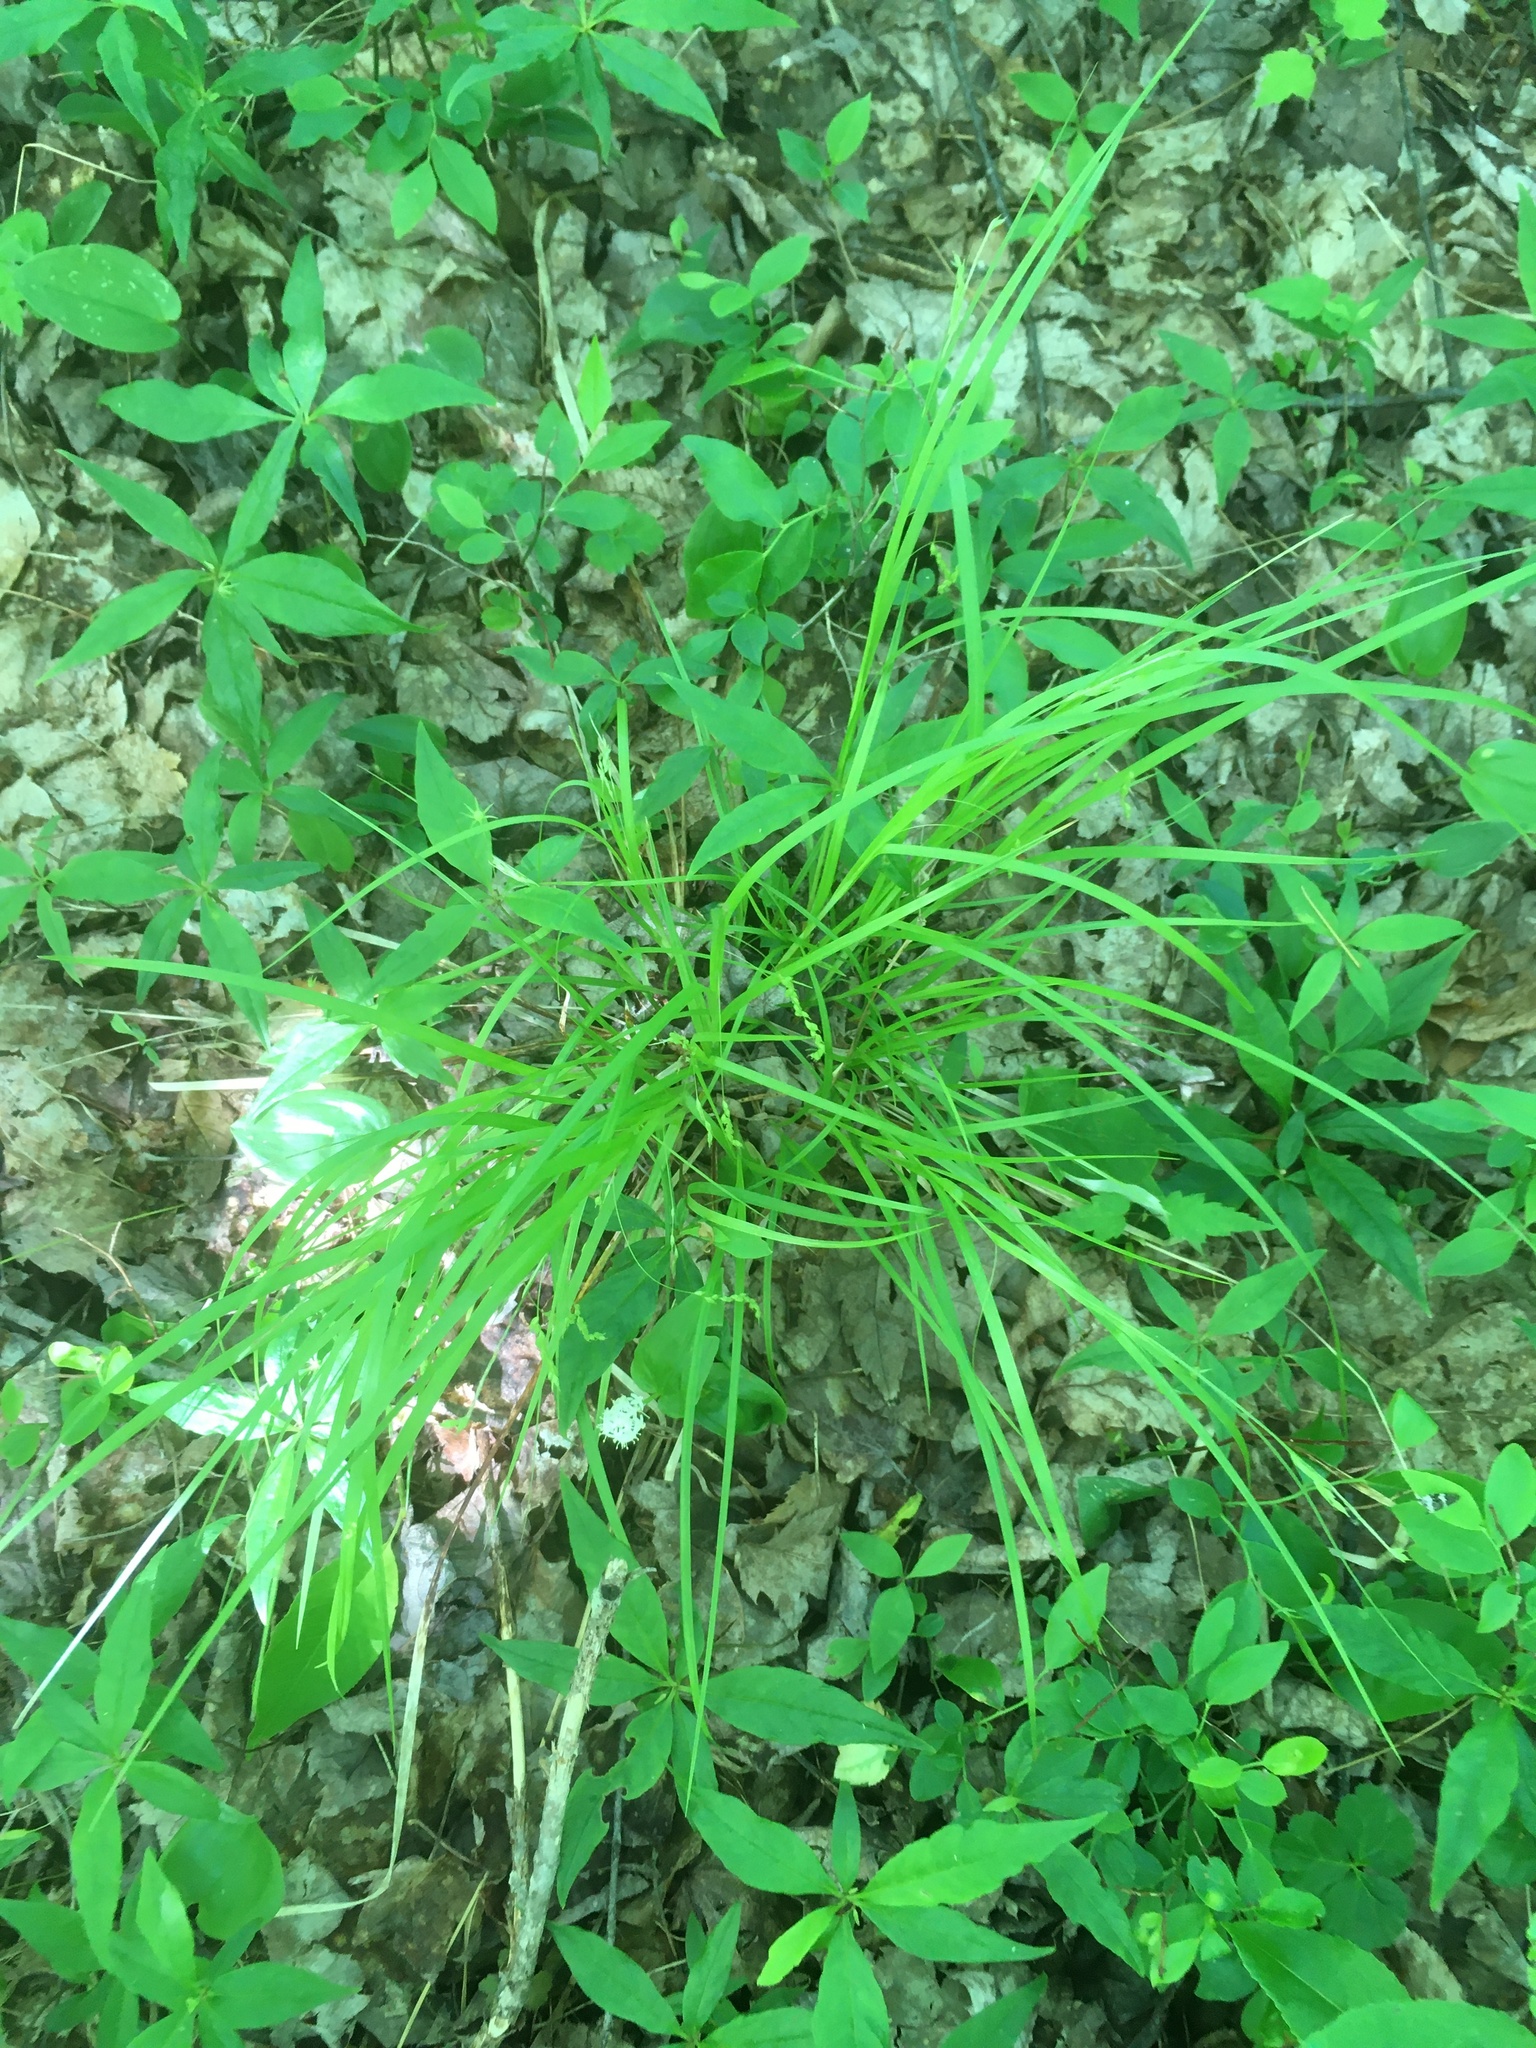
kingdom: Plantae
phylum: Tracheophyta
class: Liliopsida
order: Poales
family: Cyperaceae
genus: Carex
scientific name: Carex debilis
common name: White-edge sedge
